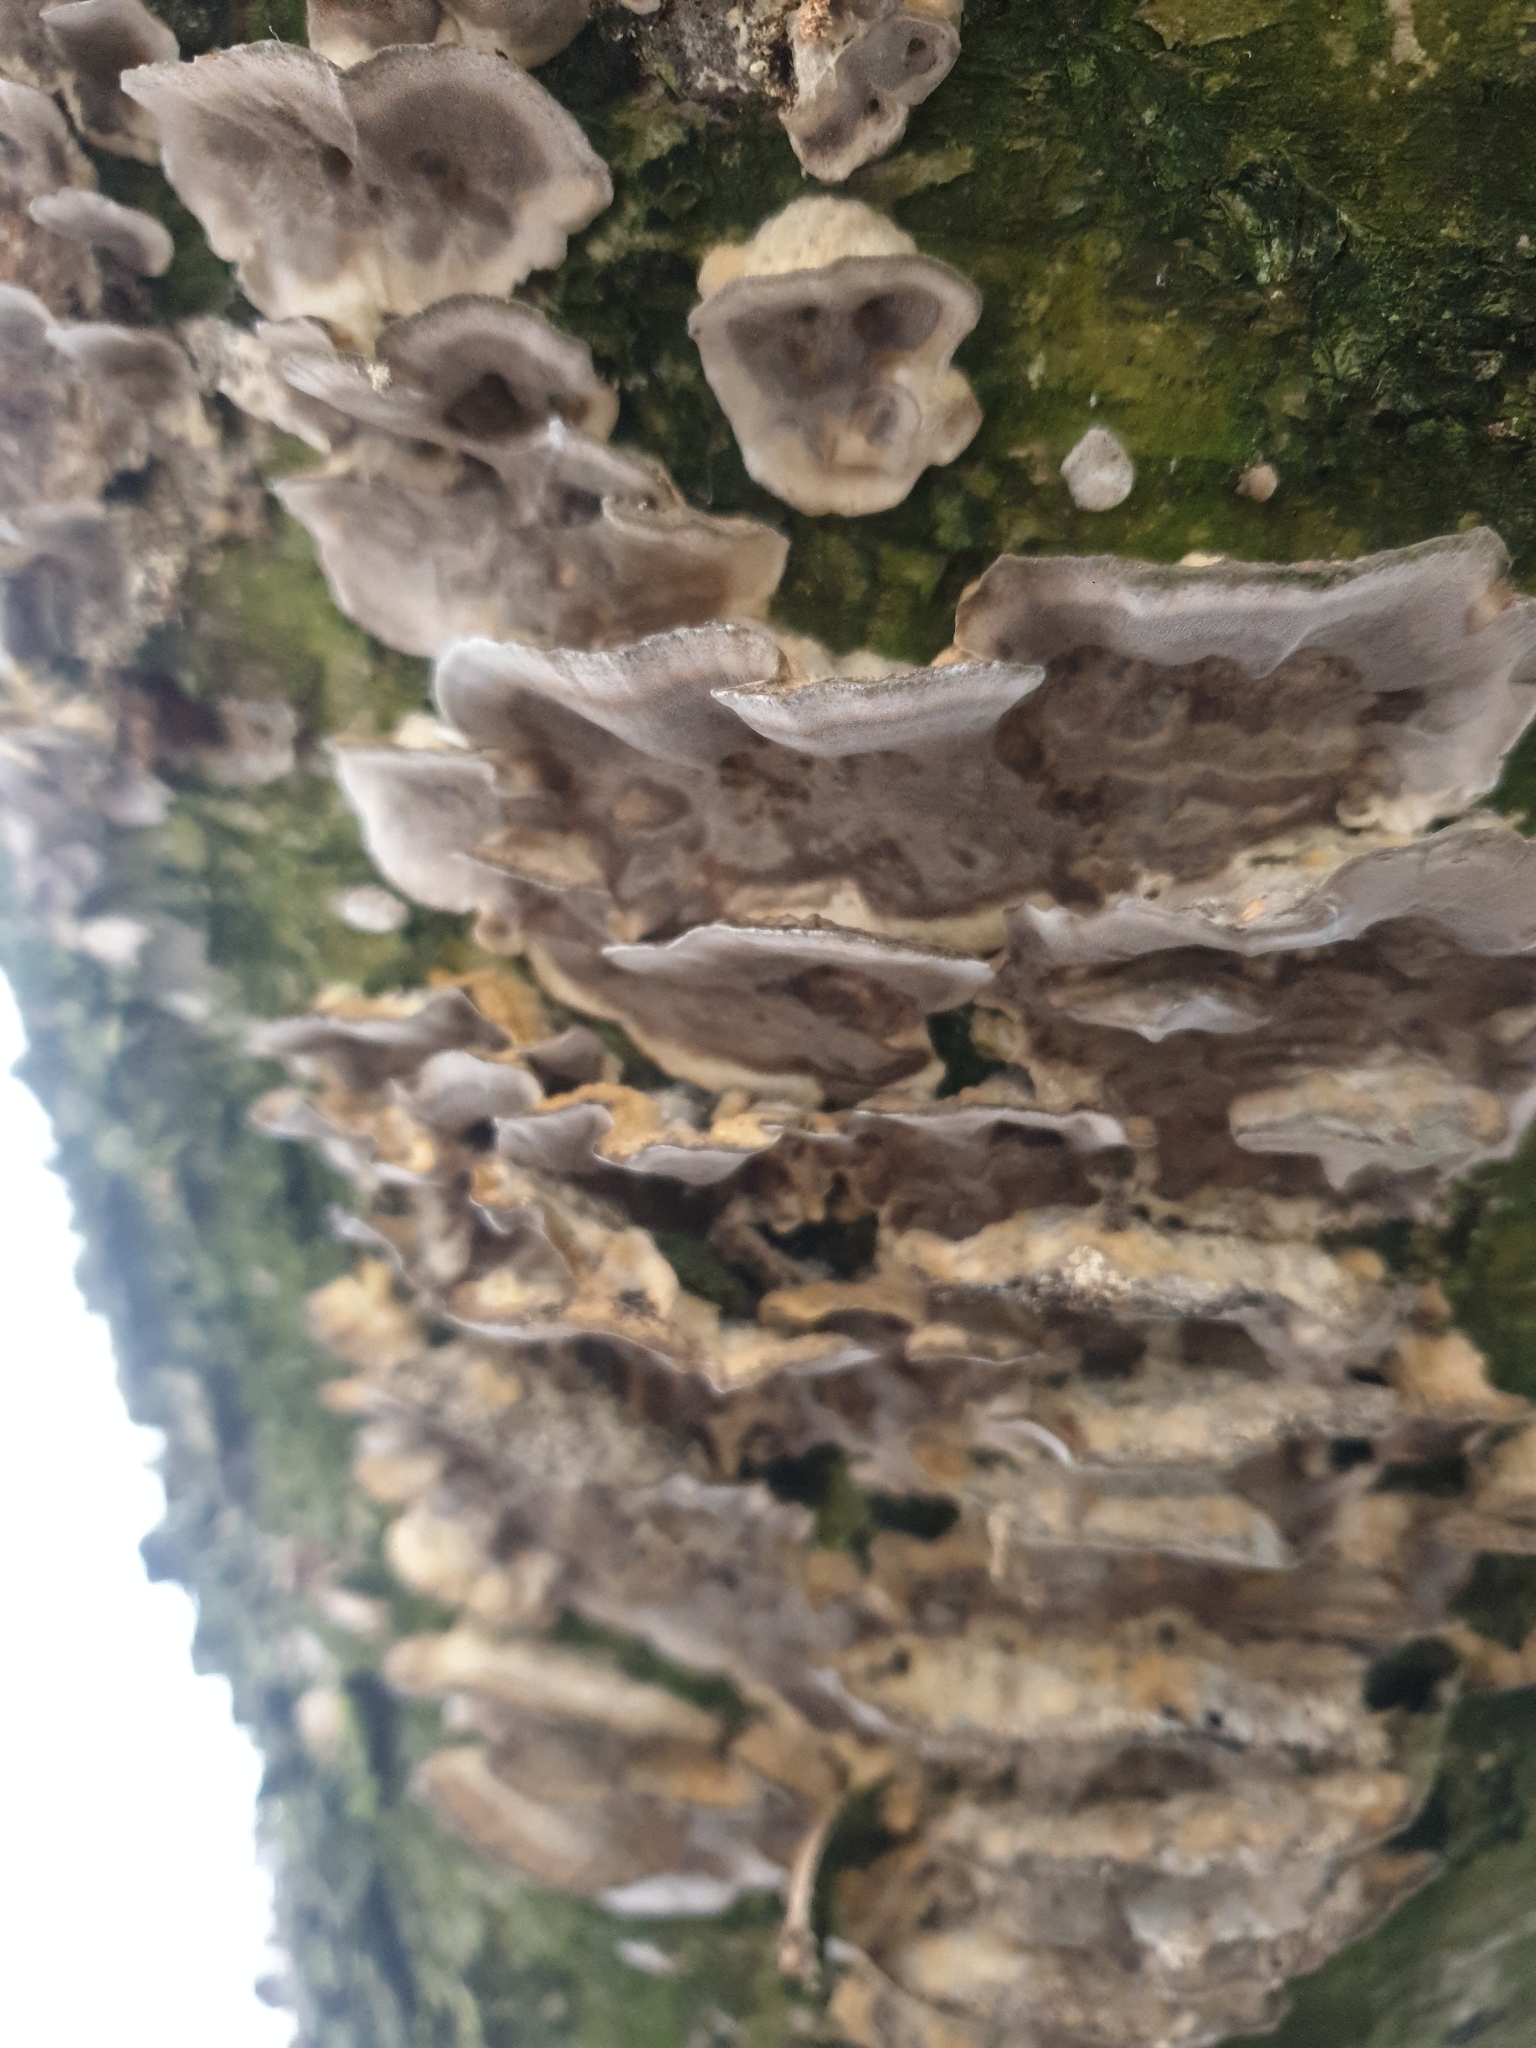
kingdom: Fungi
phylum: Basidiomycota
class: Agaricomycetes
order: Polyporales
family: Phanerochaetaceae
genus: Bjerkandera
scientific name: Bjerkandera adusta
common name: Smoky bracket
